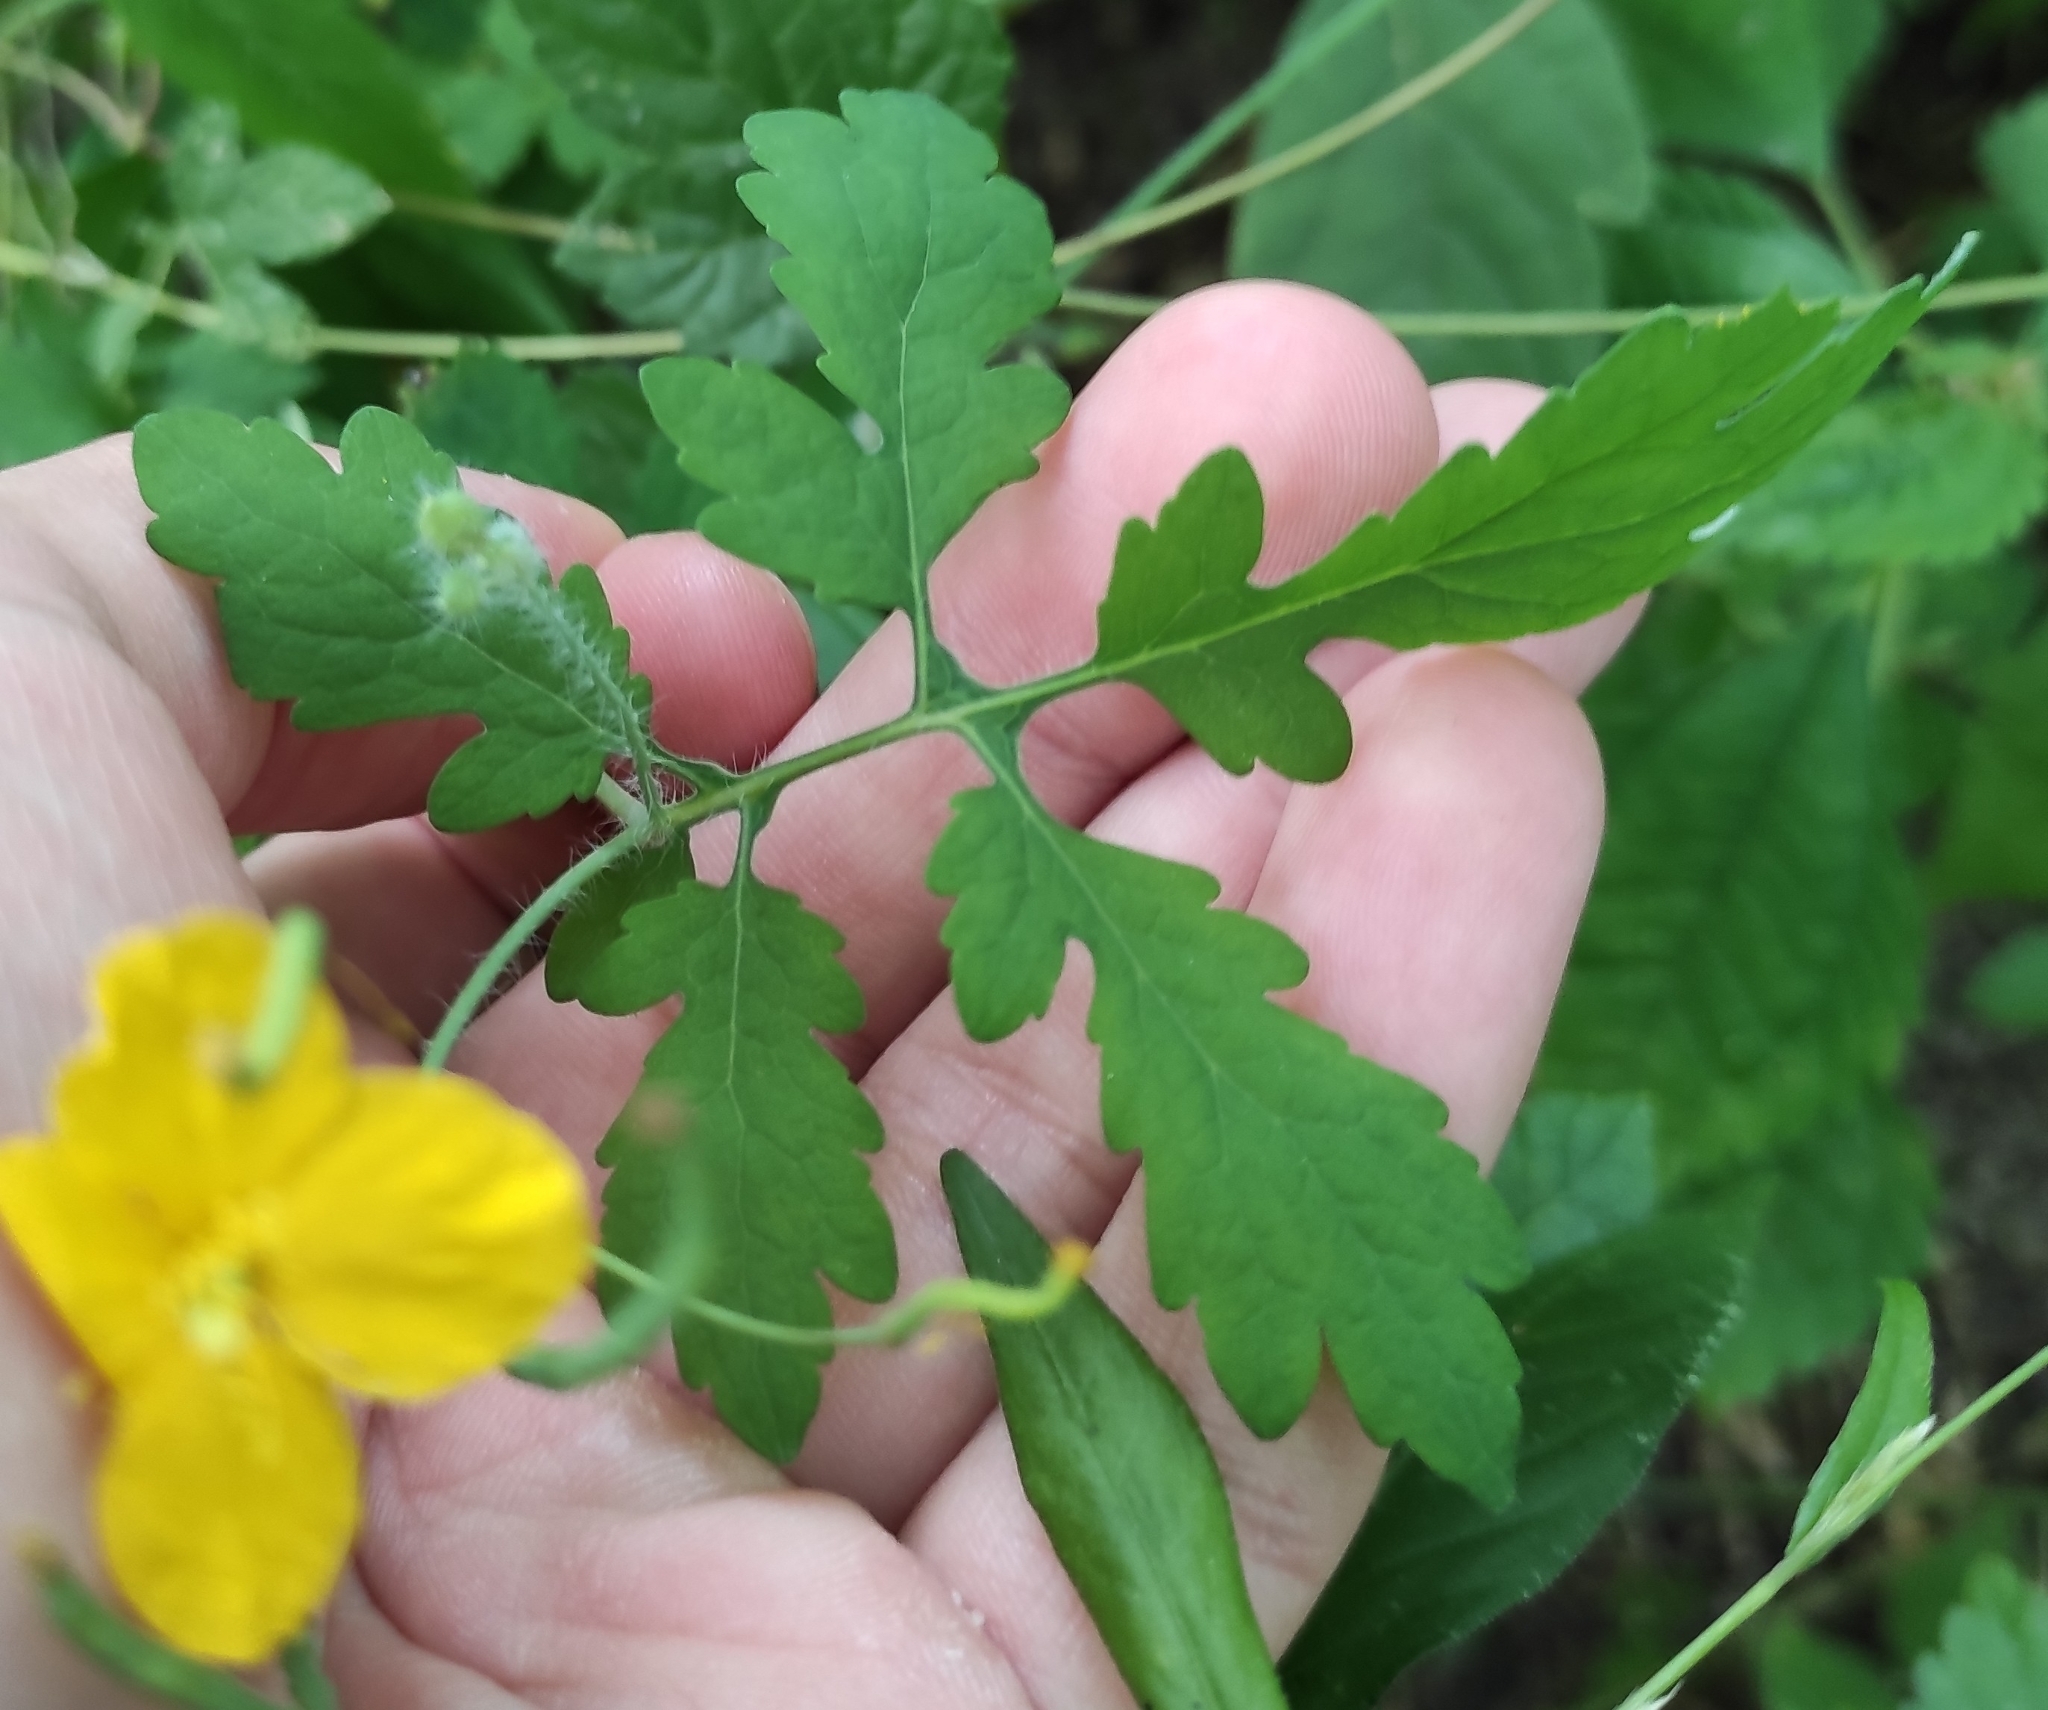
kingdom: Plantae
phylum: Tracheophyta
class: Magnoliopsida
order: Ranunculales
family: Papaveraceae
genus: Chelidonium
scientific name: Chelidonium majus
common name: Greater celandine
